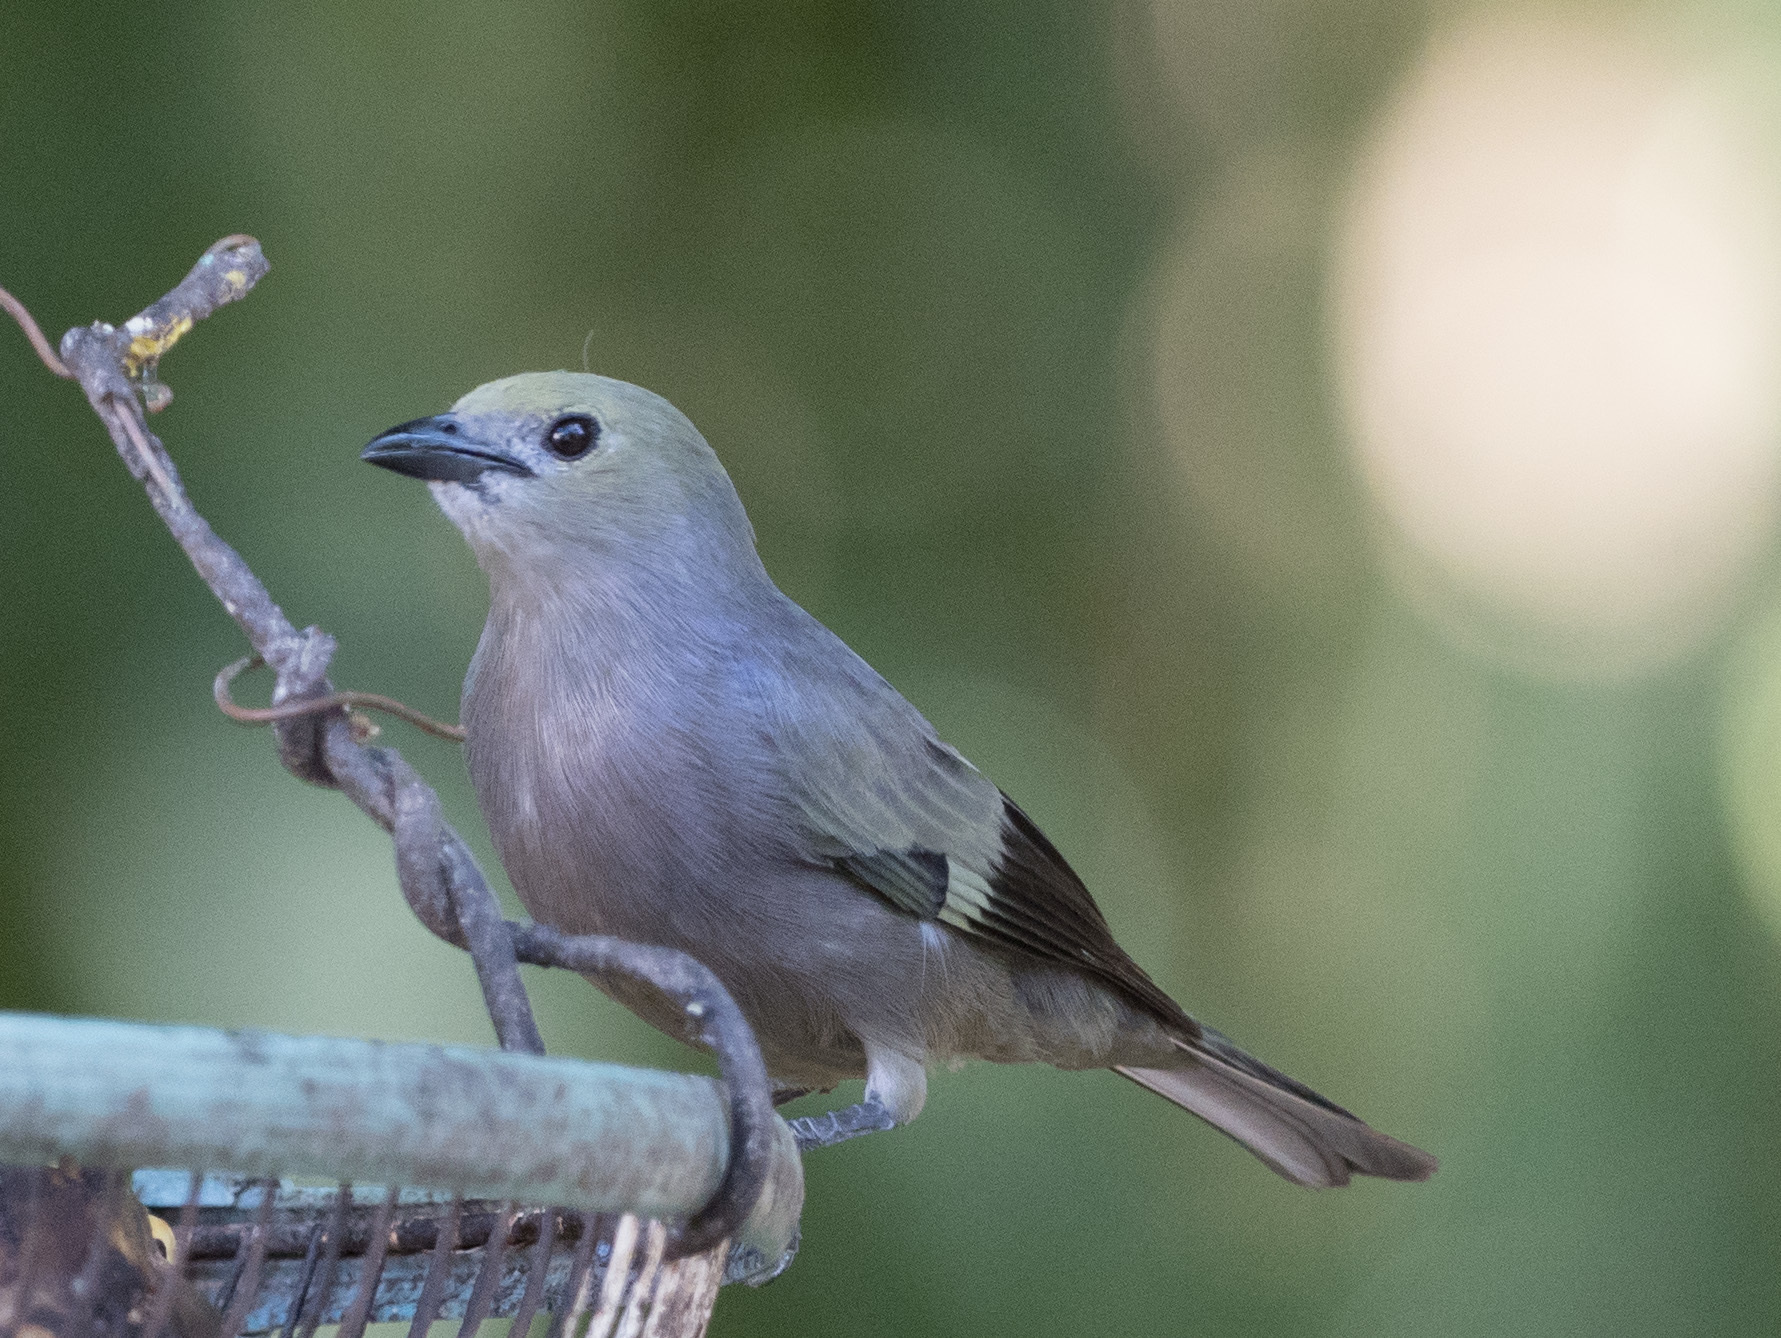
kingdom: Animalia
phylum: Chordata
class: Aves
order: Passeriformes
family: Thraupidae
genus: Thraupis
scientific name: Thraupis palmarum
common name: Palm tanager
